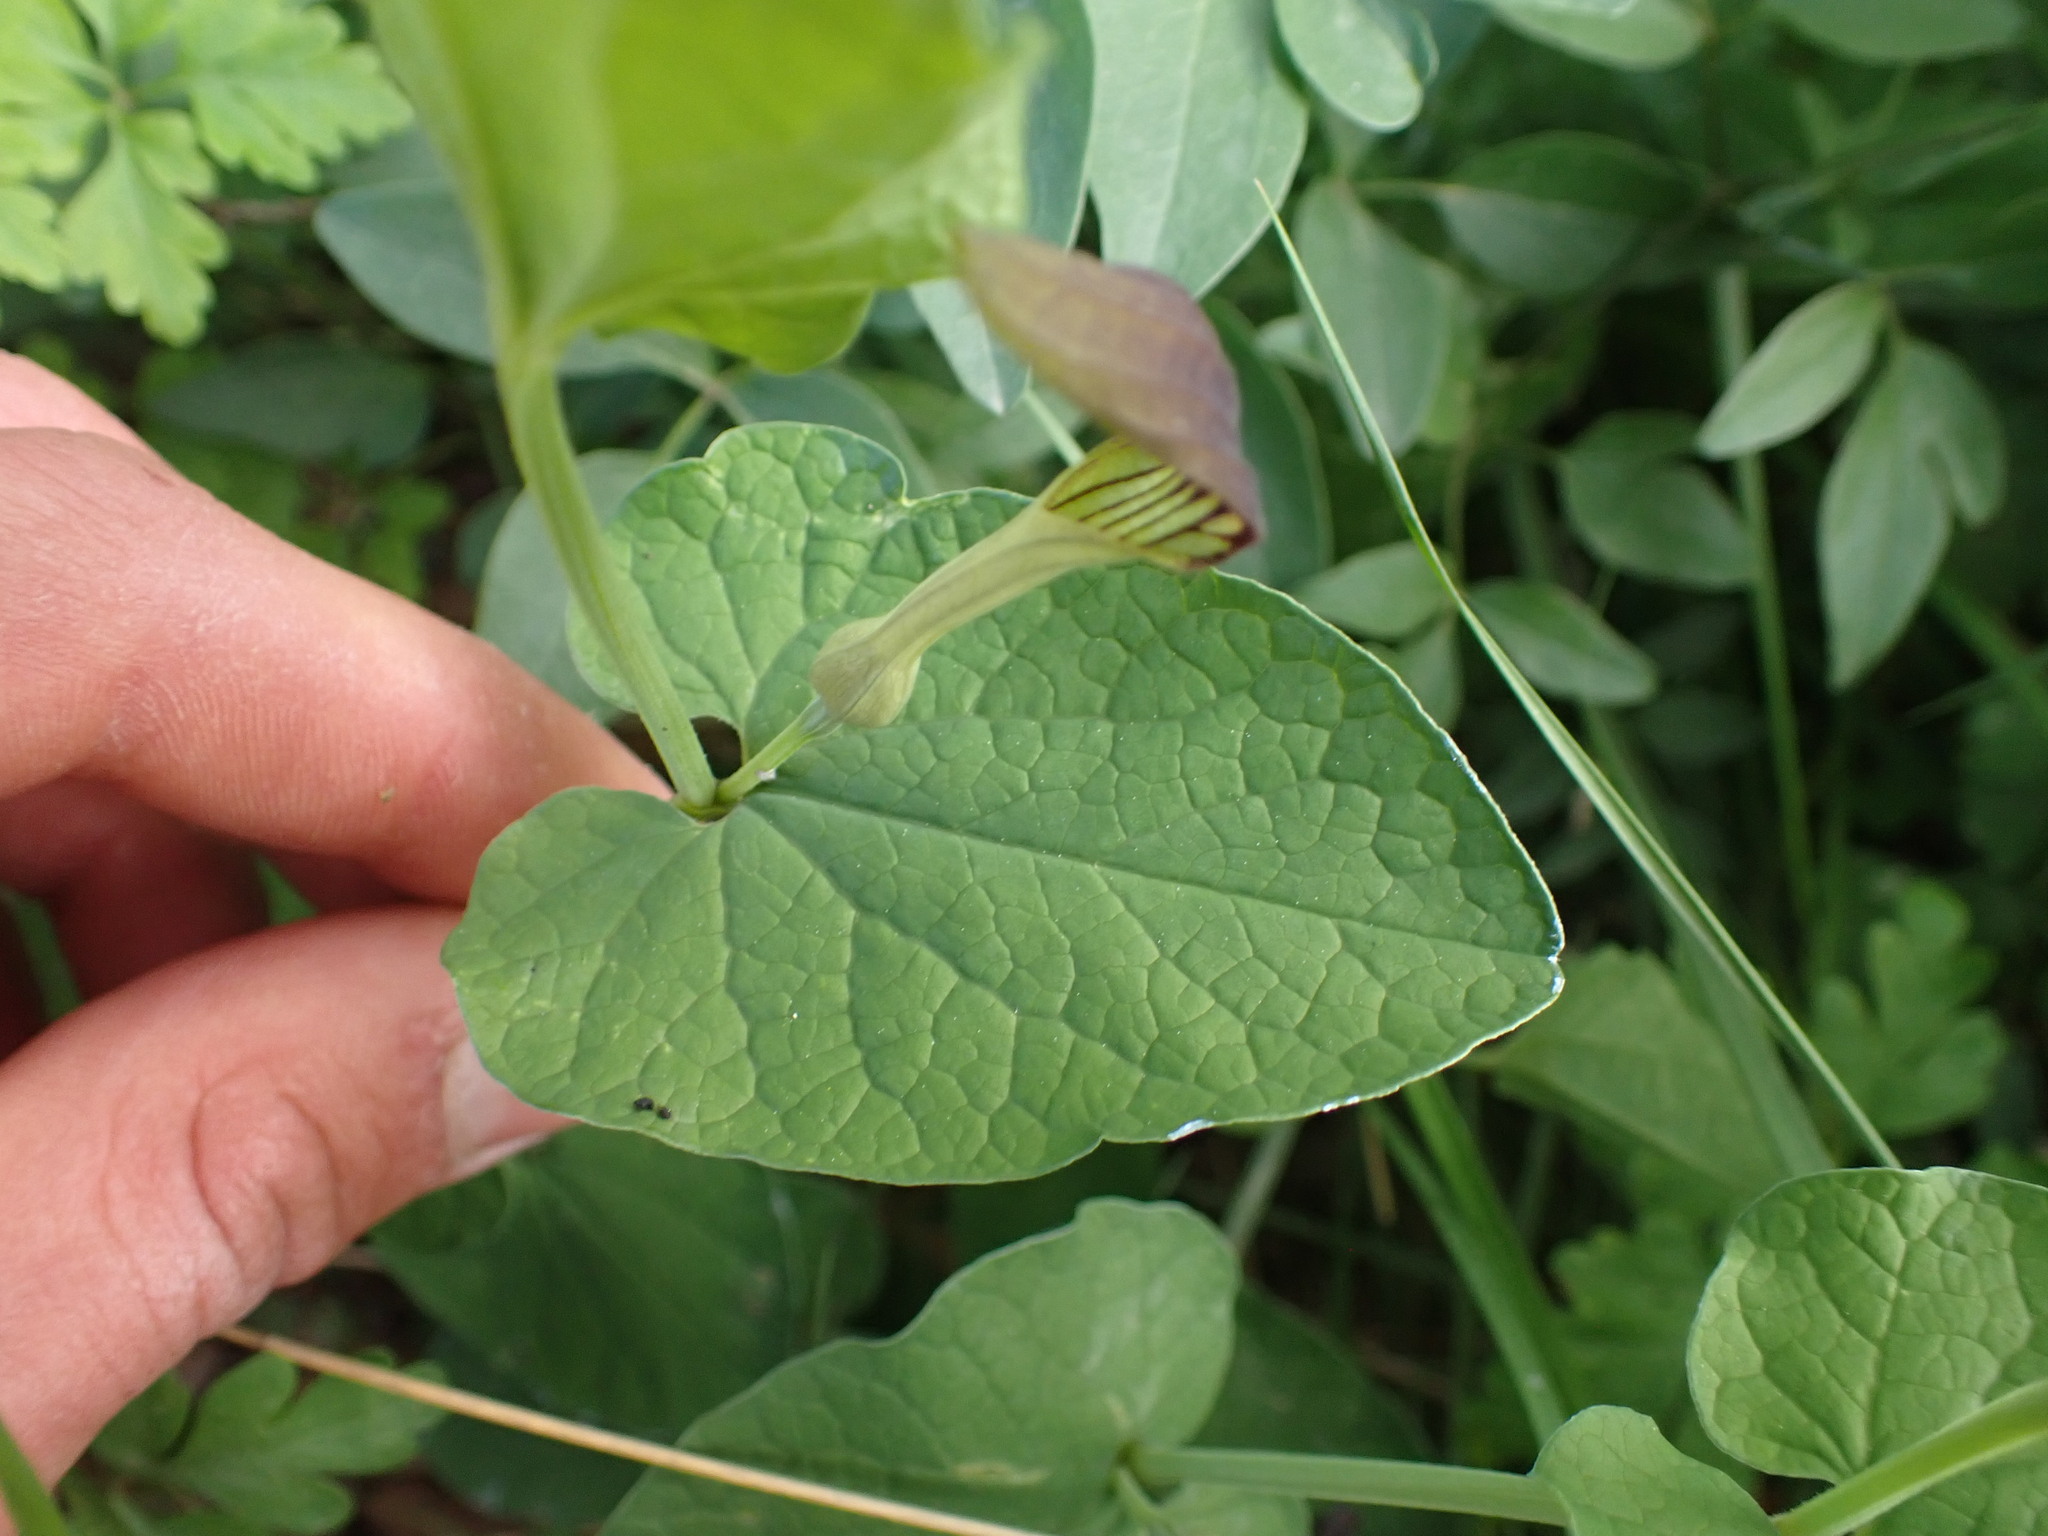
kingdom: Plantae
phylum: Tracheophyta
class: Magnoliopsida
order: Piperales
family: Aristolochiaceae
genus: Aristolochia
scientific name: Aristolochia rotunda
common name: Smearwort
